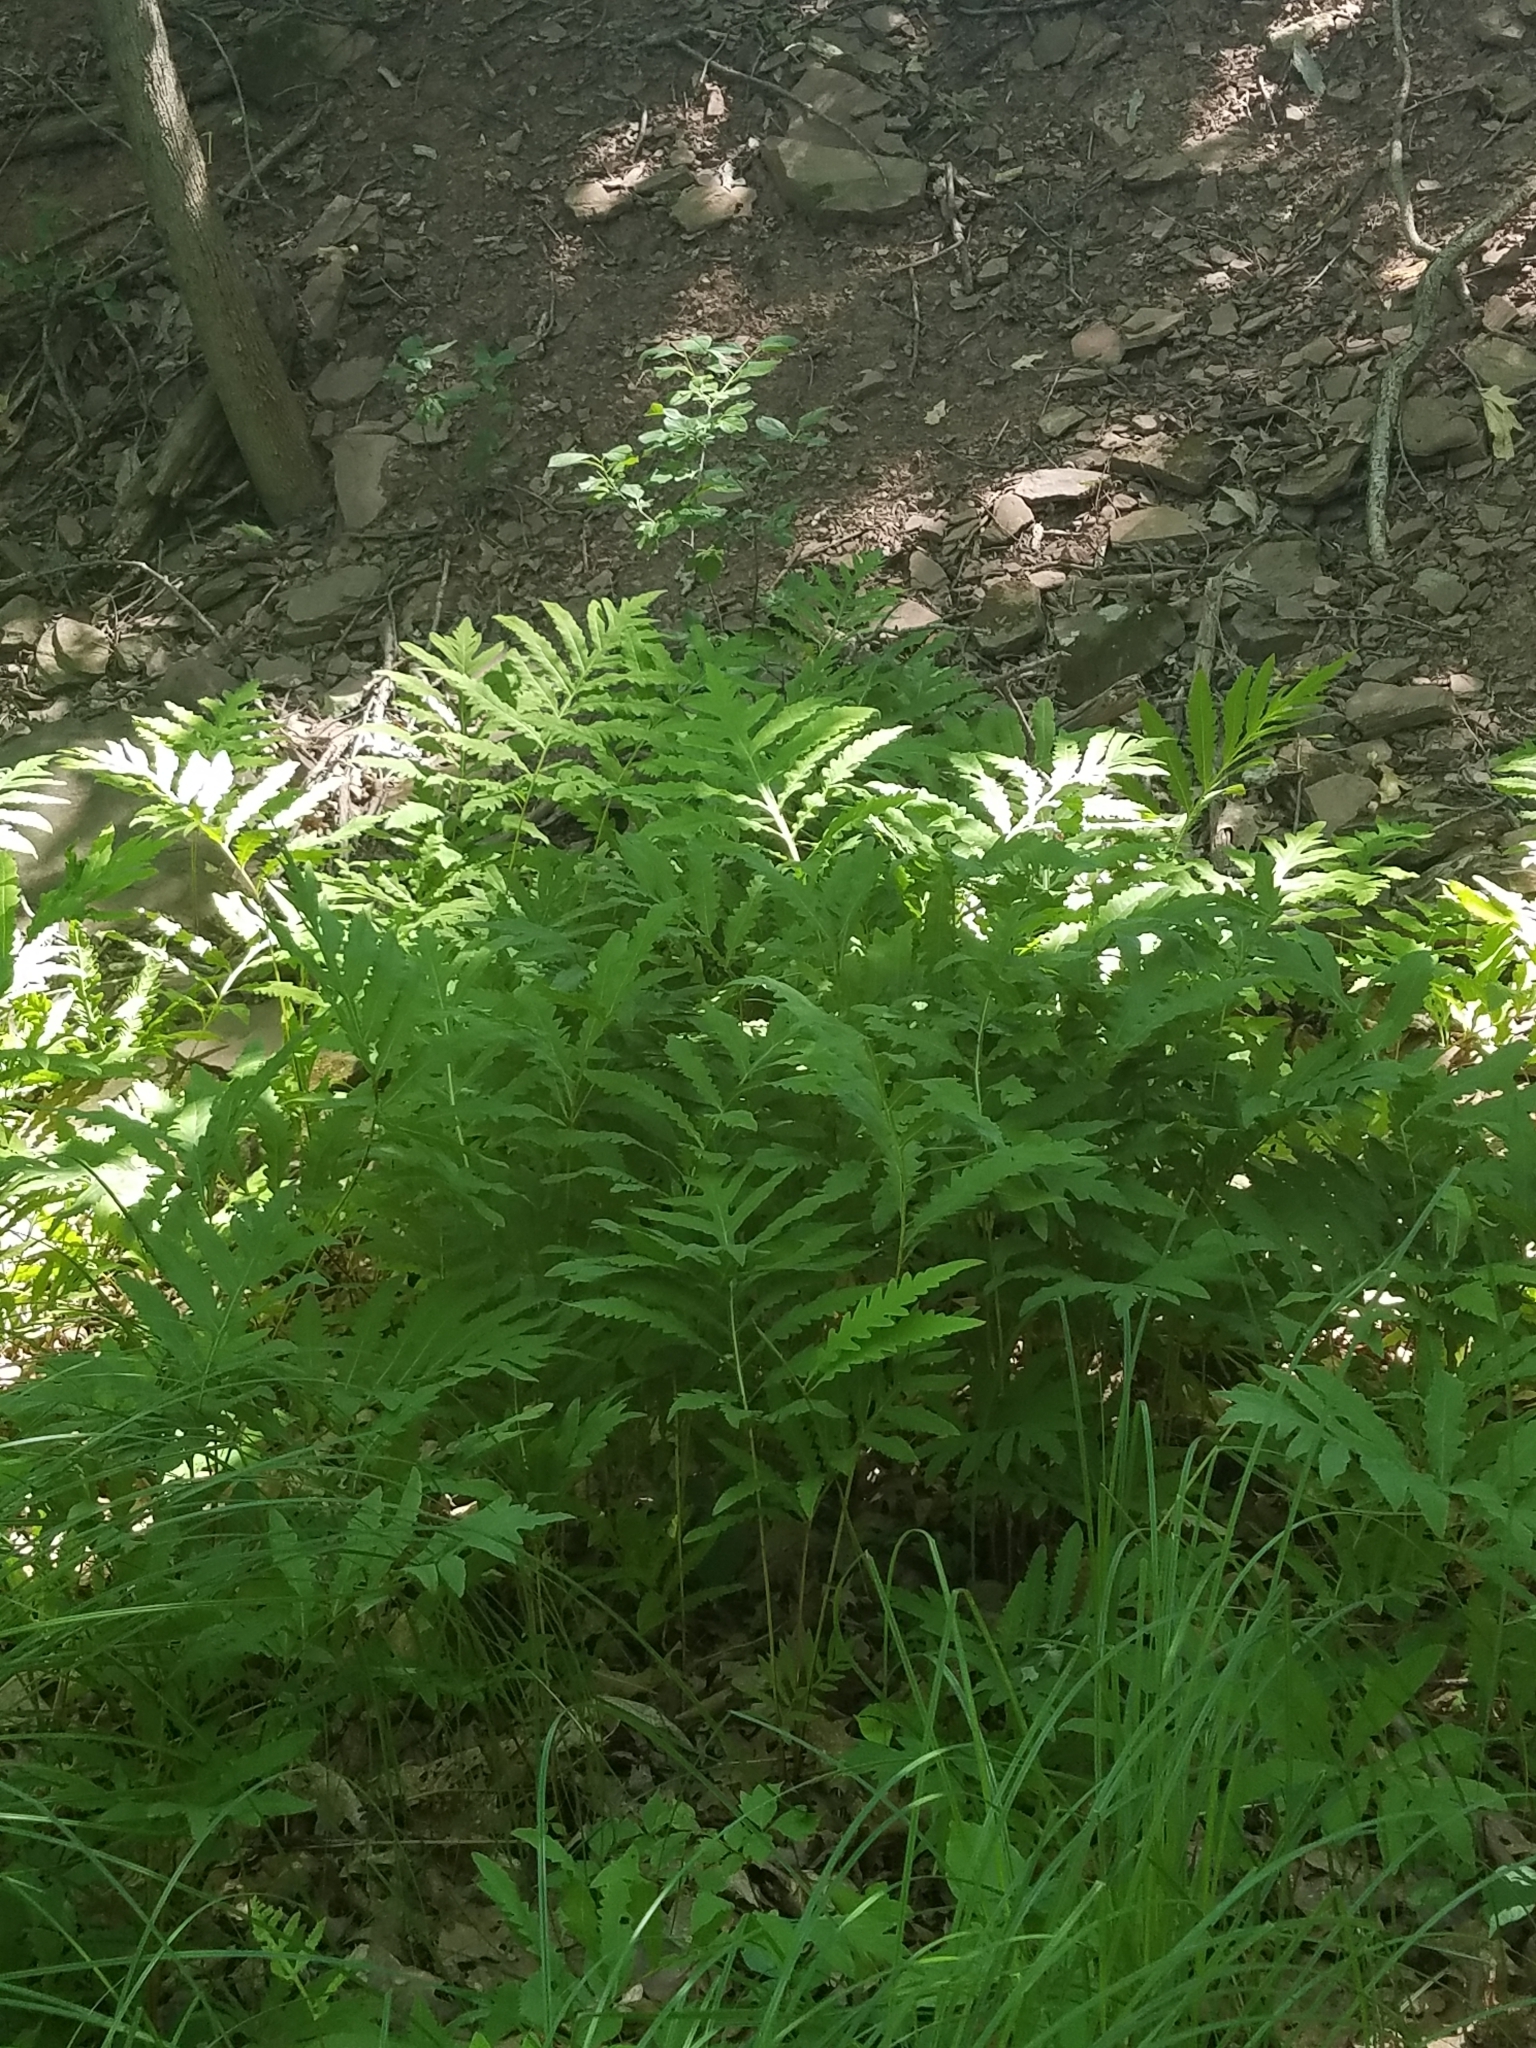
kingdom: Plantae
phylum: Tracheophyta
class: Polypodiopsida
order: Polypodiales
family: Onocleaceae
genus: Onoclea
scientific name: Onoclea sensibilis
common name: Sensitive fern
